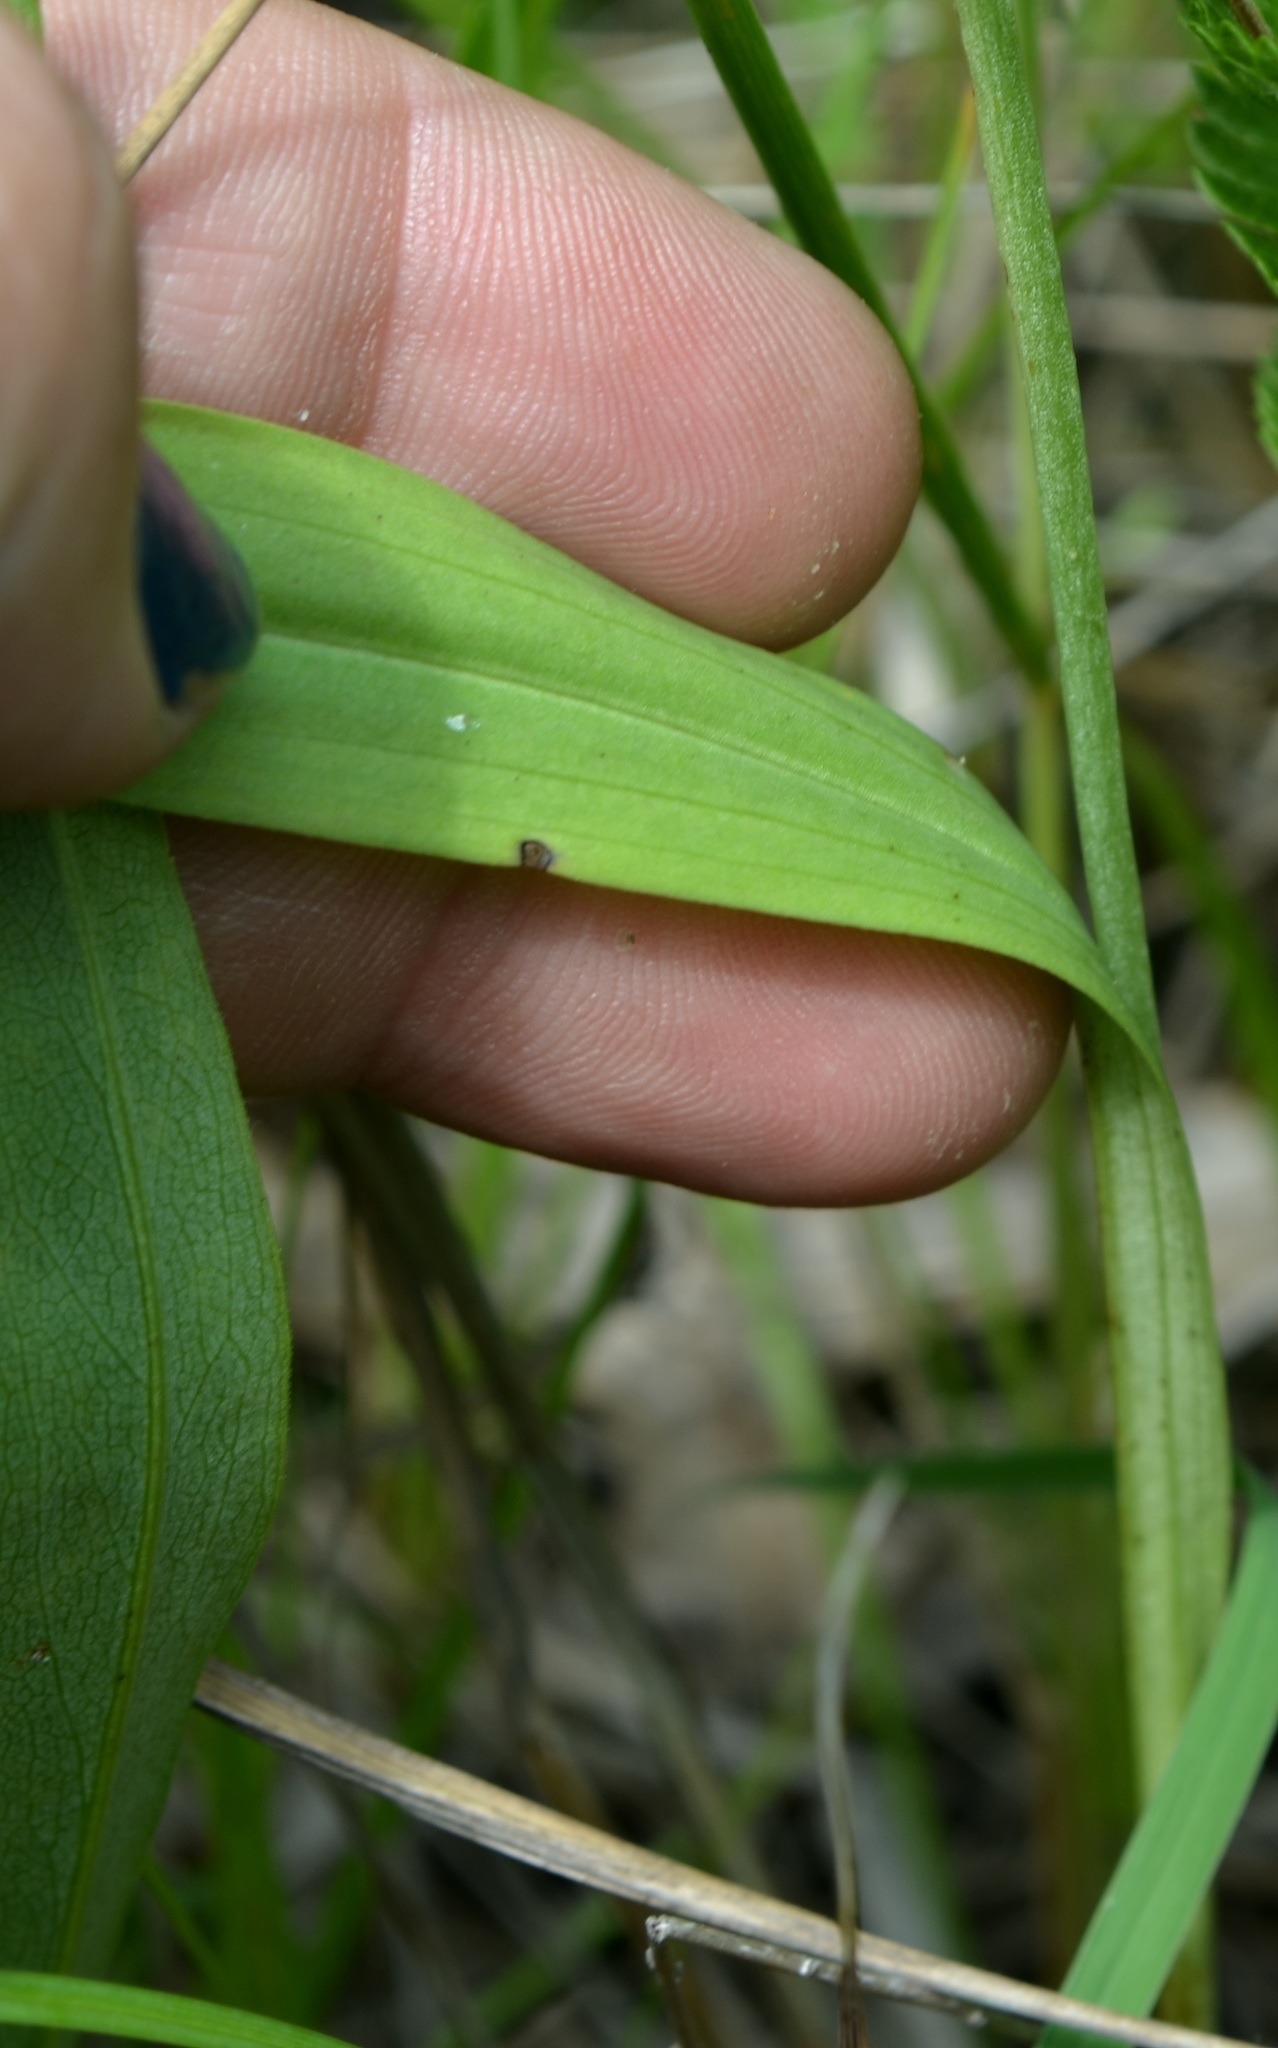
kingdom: Plantae
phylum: Tracheophyta
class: Liliopsida
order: Asparagales
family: Orchidaceae
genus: Platanthera
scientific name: Platanthera clavellata
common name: Club-spur orchid
